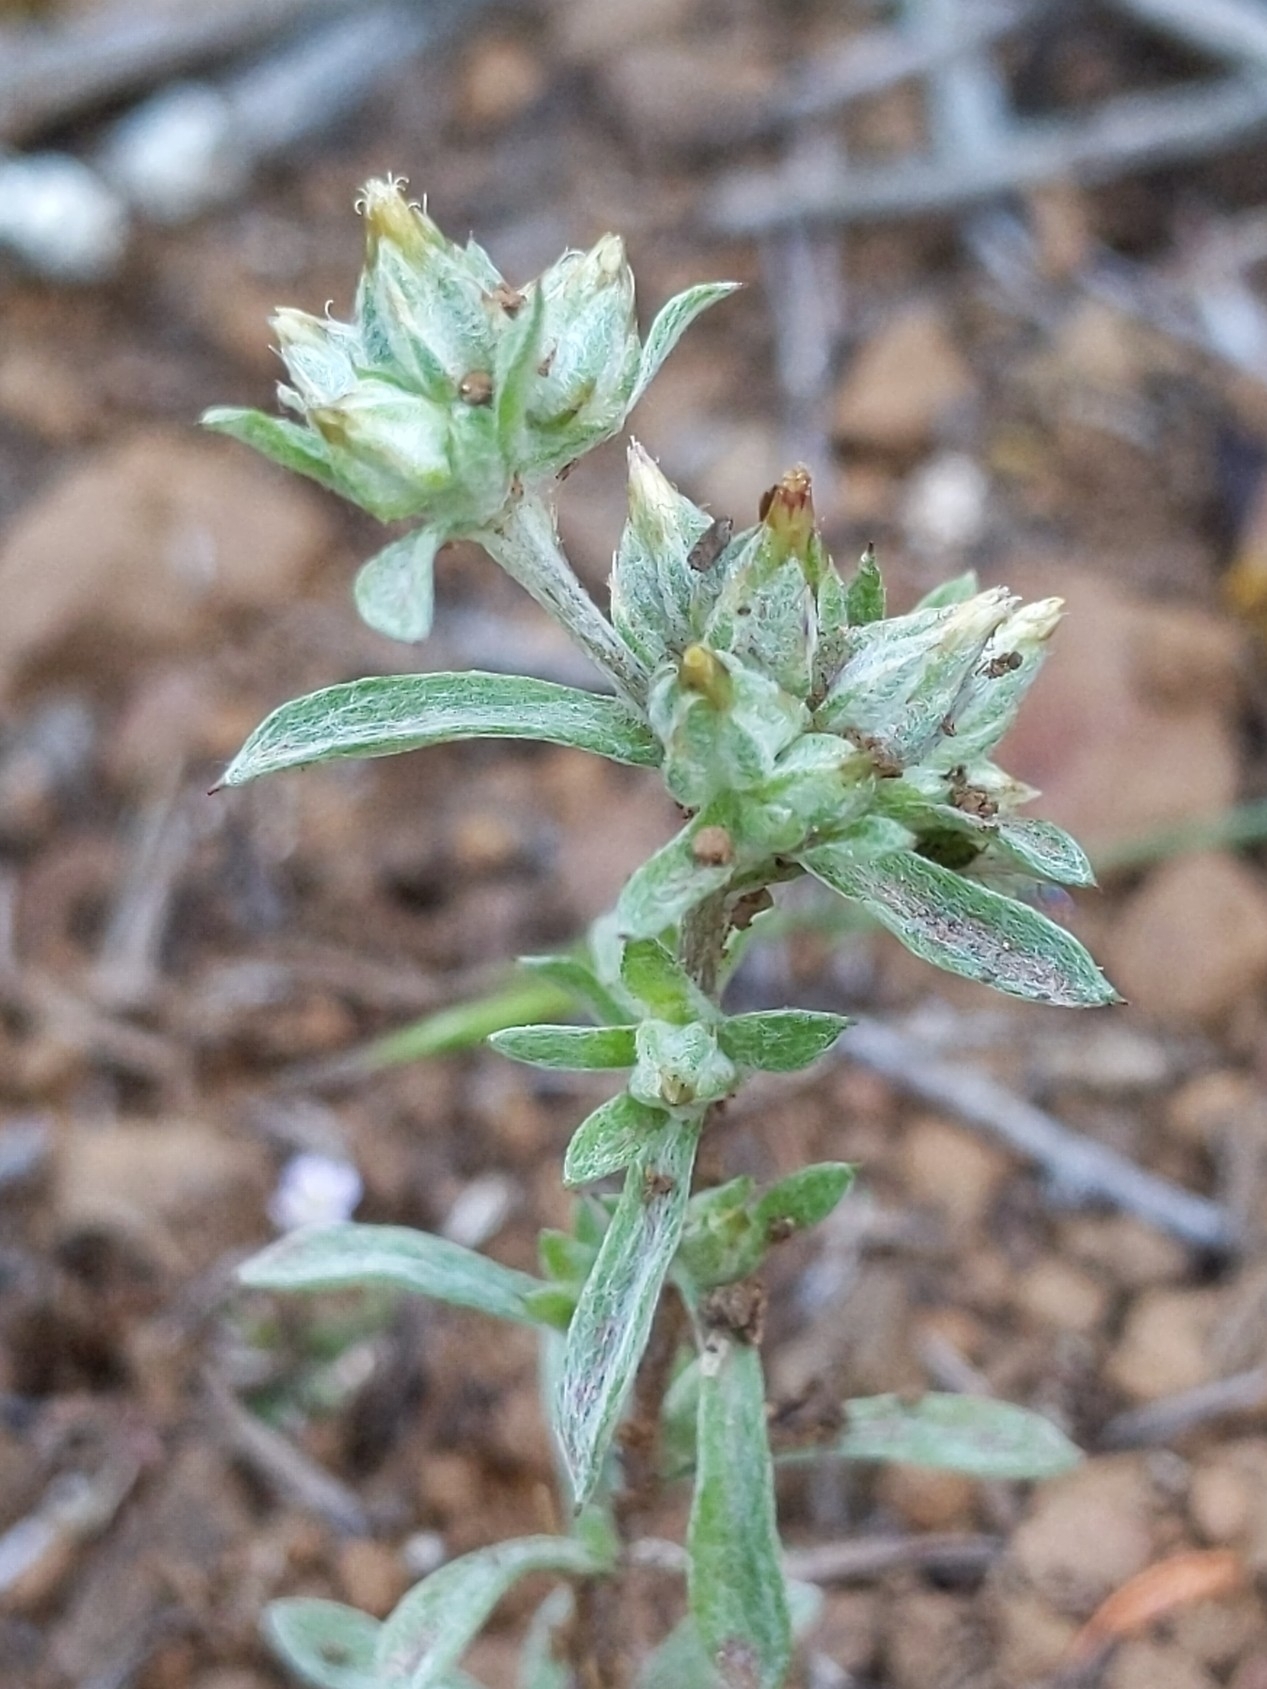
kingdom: Plantae
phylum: Tracheophyta
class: Magnoliopsida
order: Asterales
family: Asteraceae
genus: Logfia
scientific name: Logfia californica
